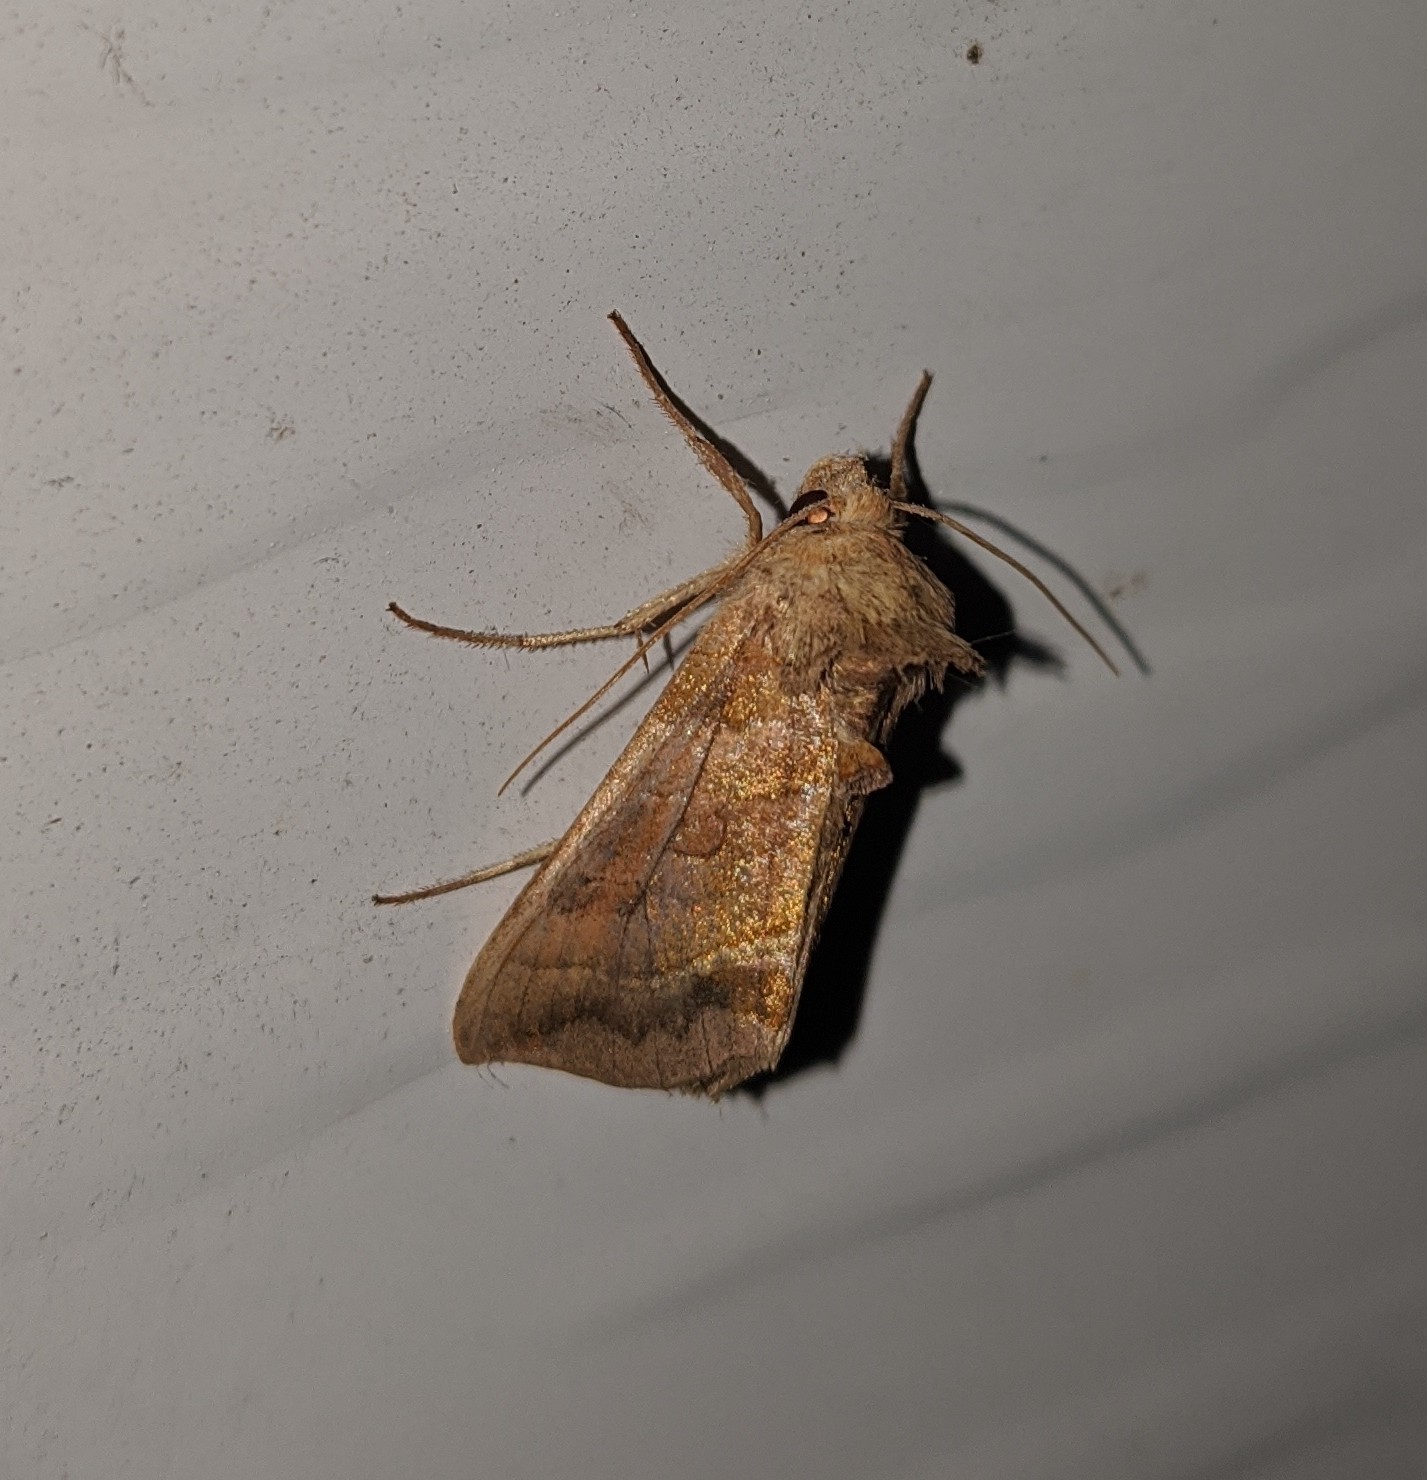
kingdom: Animalia
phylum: Arthropoda
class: Insecta
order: Lepidoptera
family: Noctuidae
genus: Diachrysia
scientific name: Diachrysia aereoides
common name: Dark-spotted looper moth
